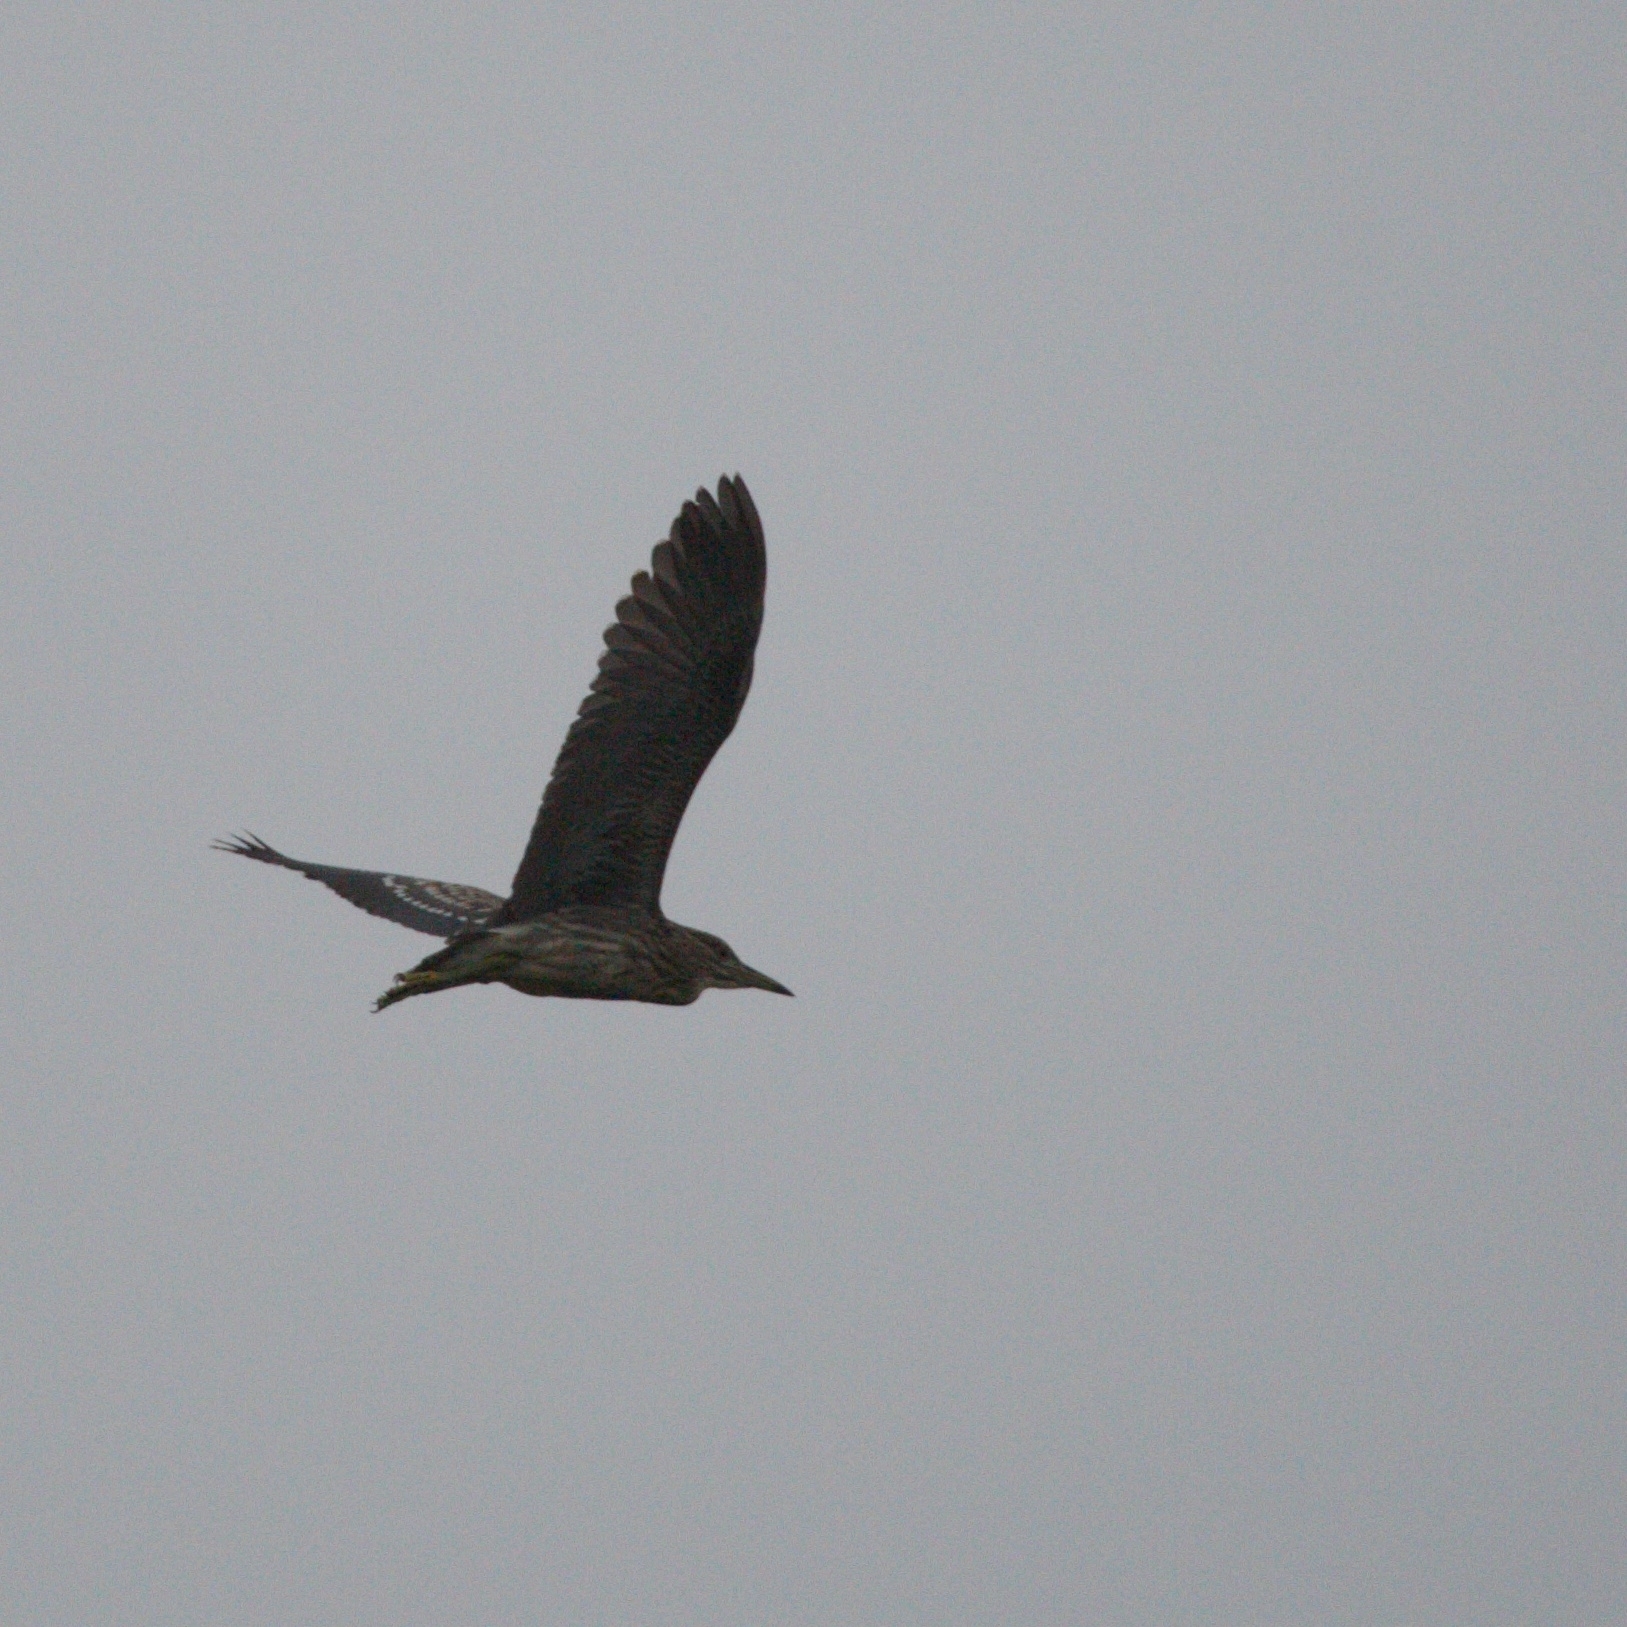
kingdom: Animalia
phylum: Chordata
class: Aves
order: Pelecaniformes
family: Ardeidae
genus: Nycticorax
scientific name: Nycticorax nycticorax
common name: Black-crowned night heron
